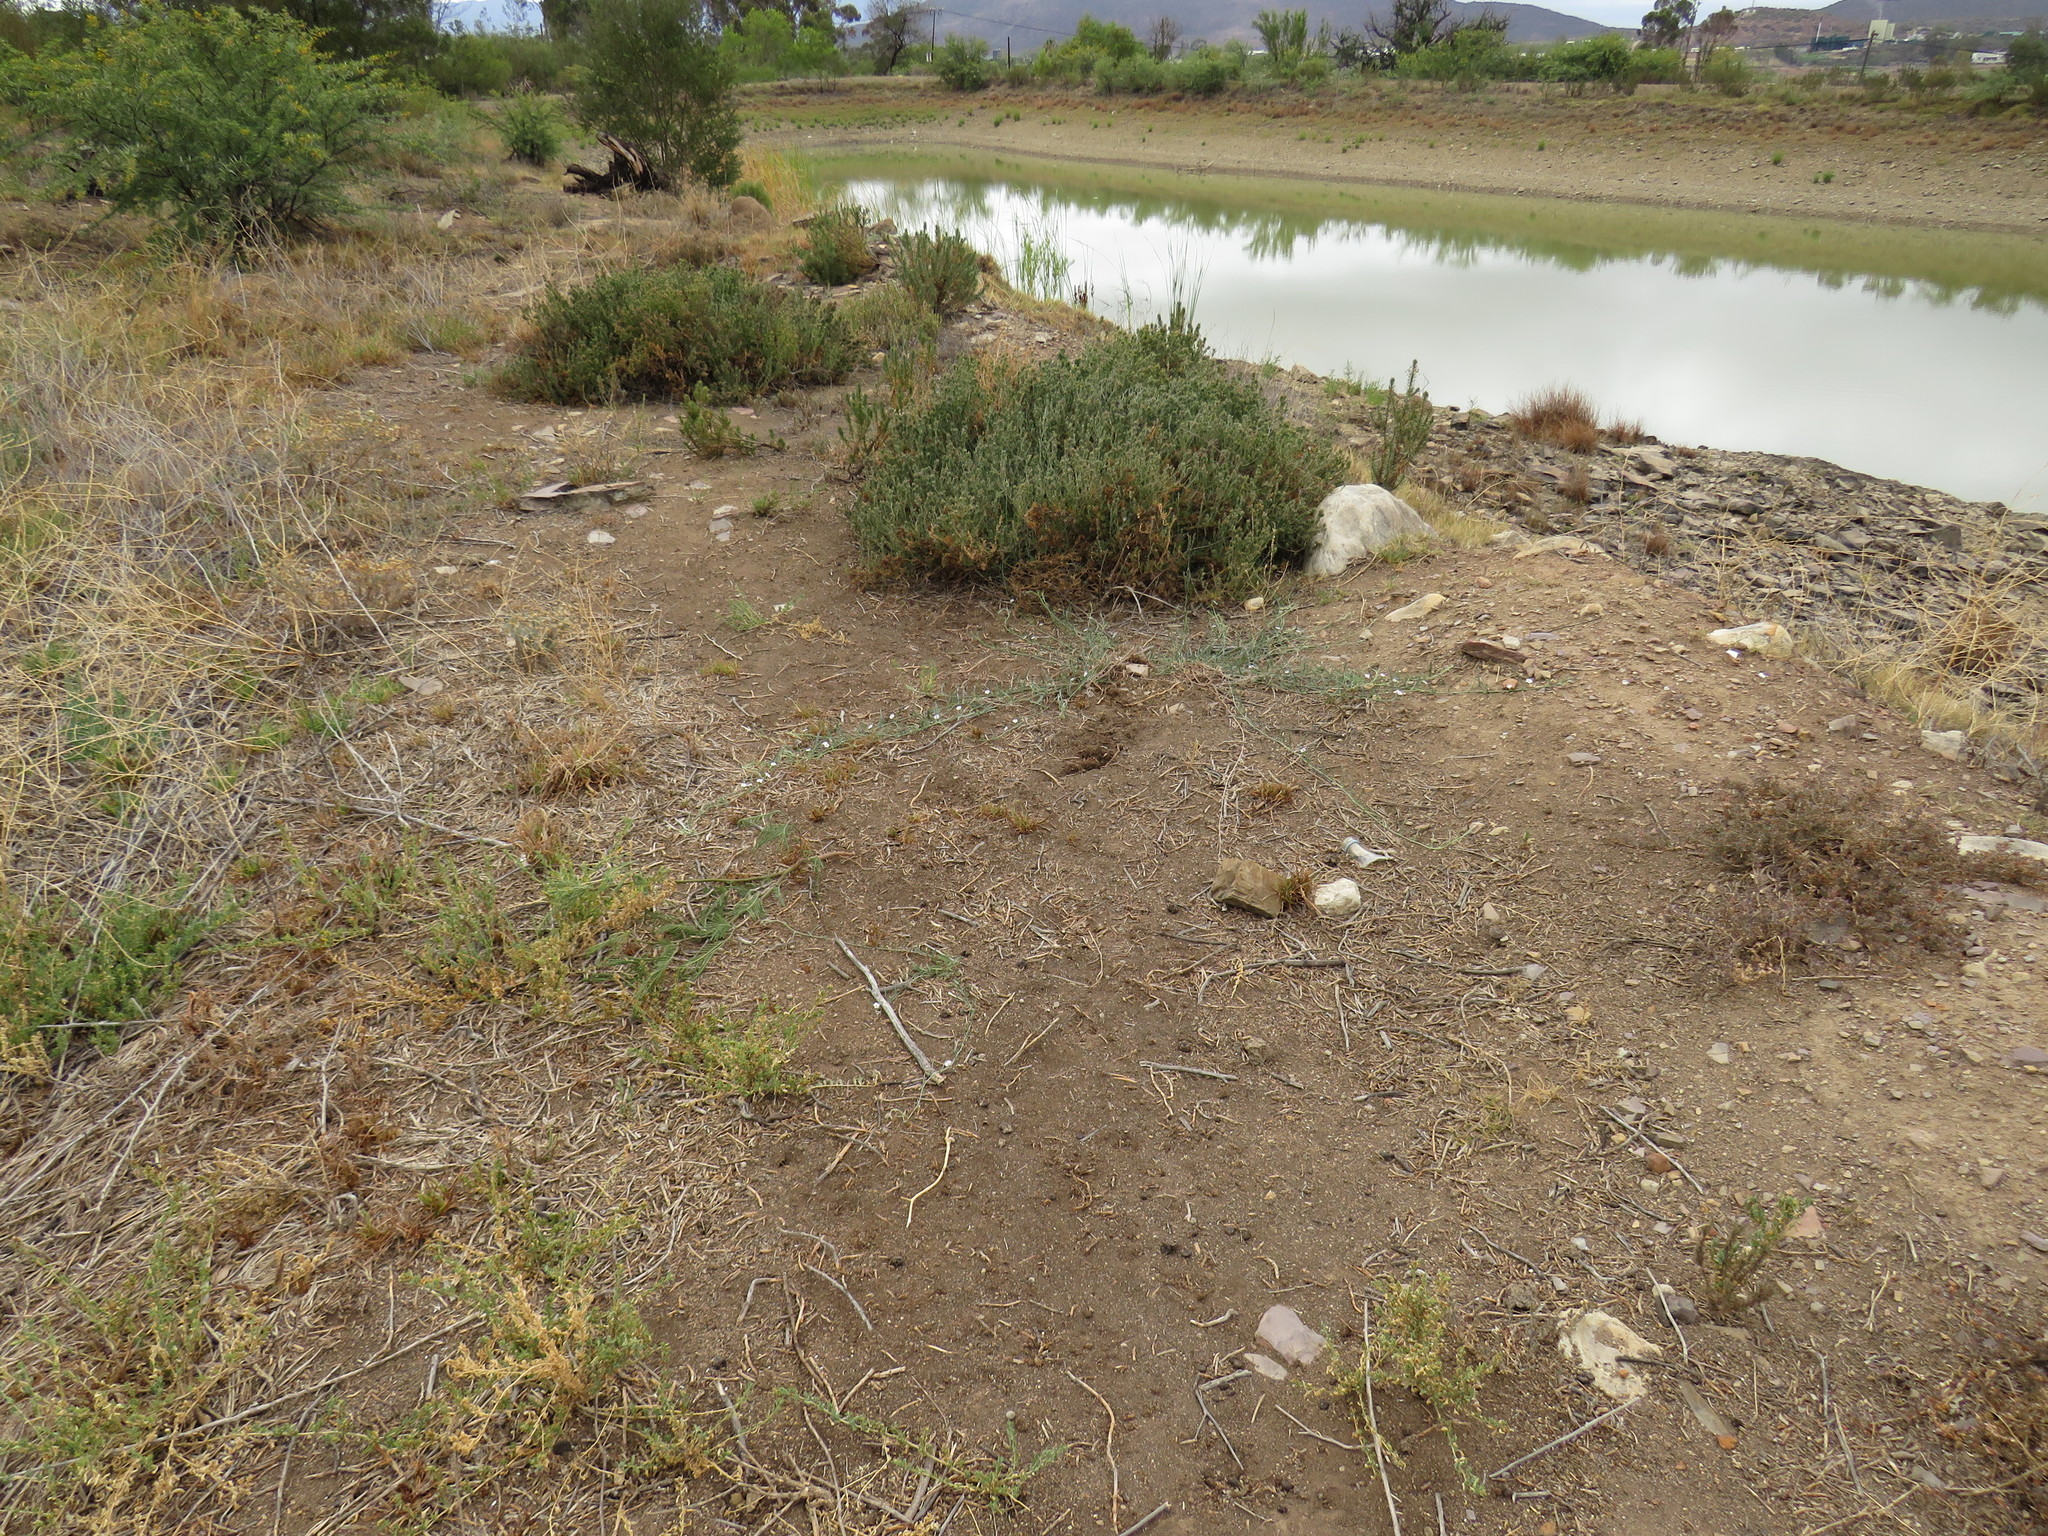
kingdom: Plantae
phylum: Tracheophyta
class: Magnoliopsida
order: Solanales
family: Convolvulaceae
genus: Convolvulus
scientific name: Convolvulus sagittatus
